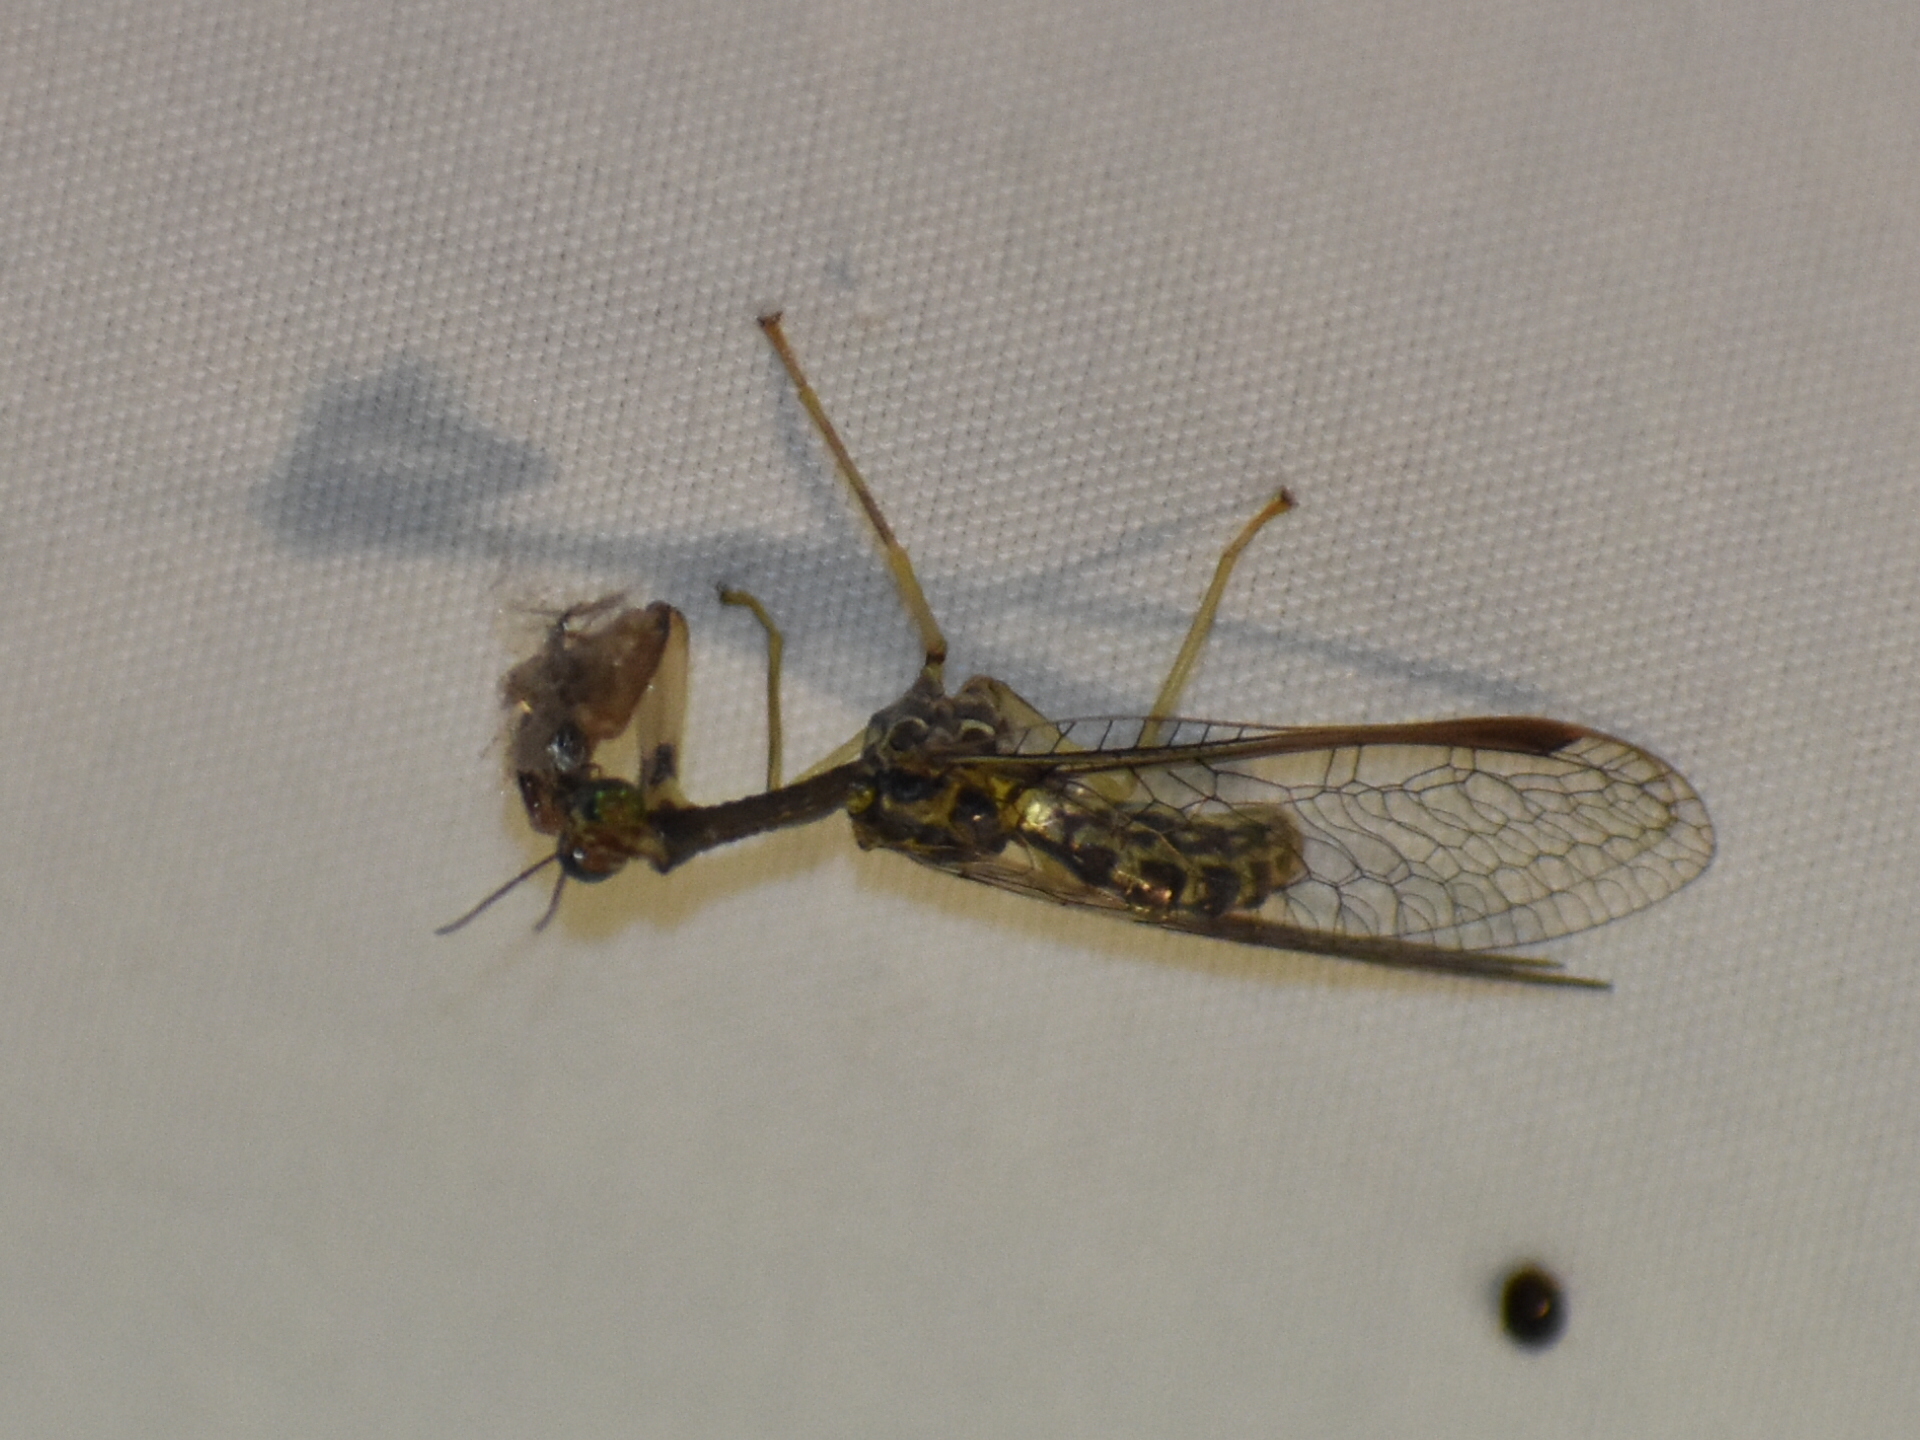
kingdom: Animalia
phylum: Arthropoda
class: Insecta
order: Neuroptera
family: Mantispidae
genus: Dicromantispa
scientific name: Dicromantispa sayi
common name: Say's mantidfly
